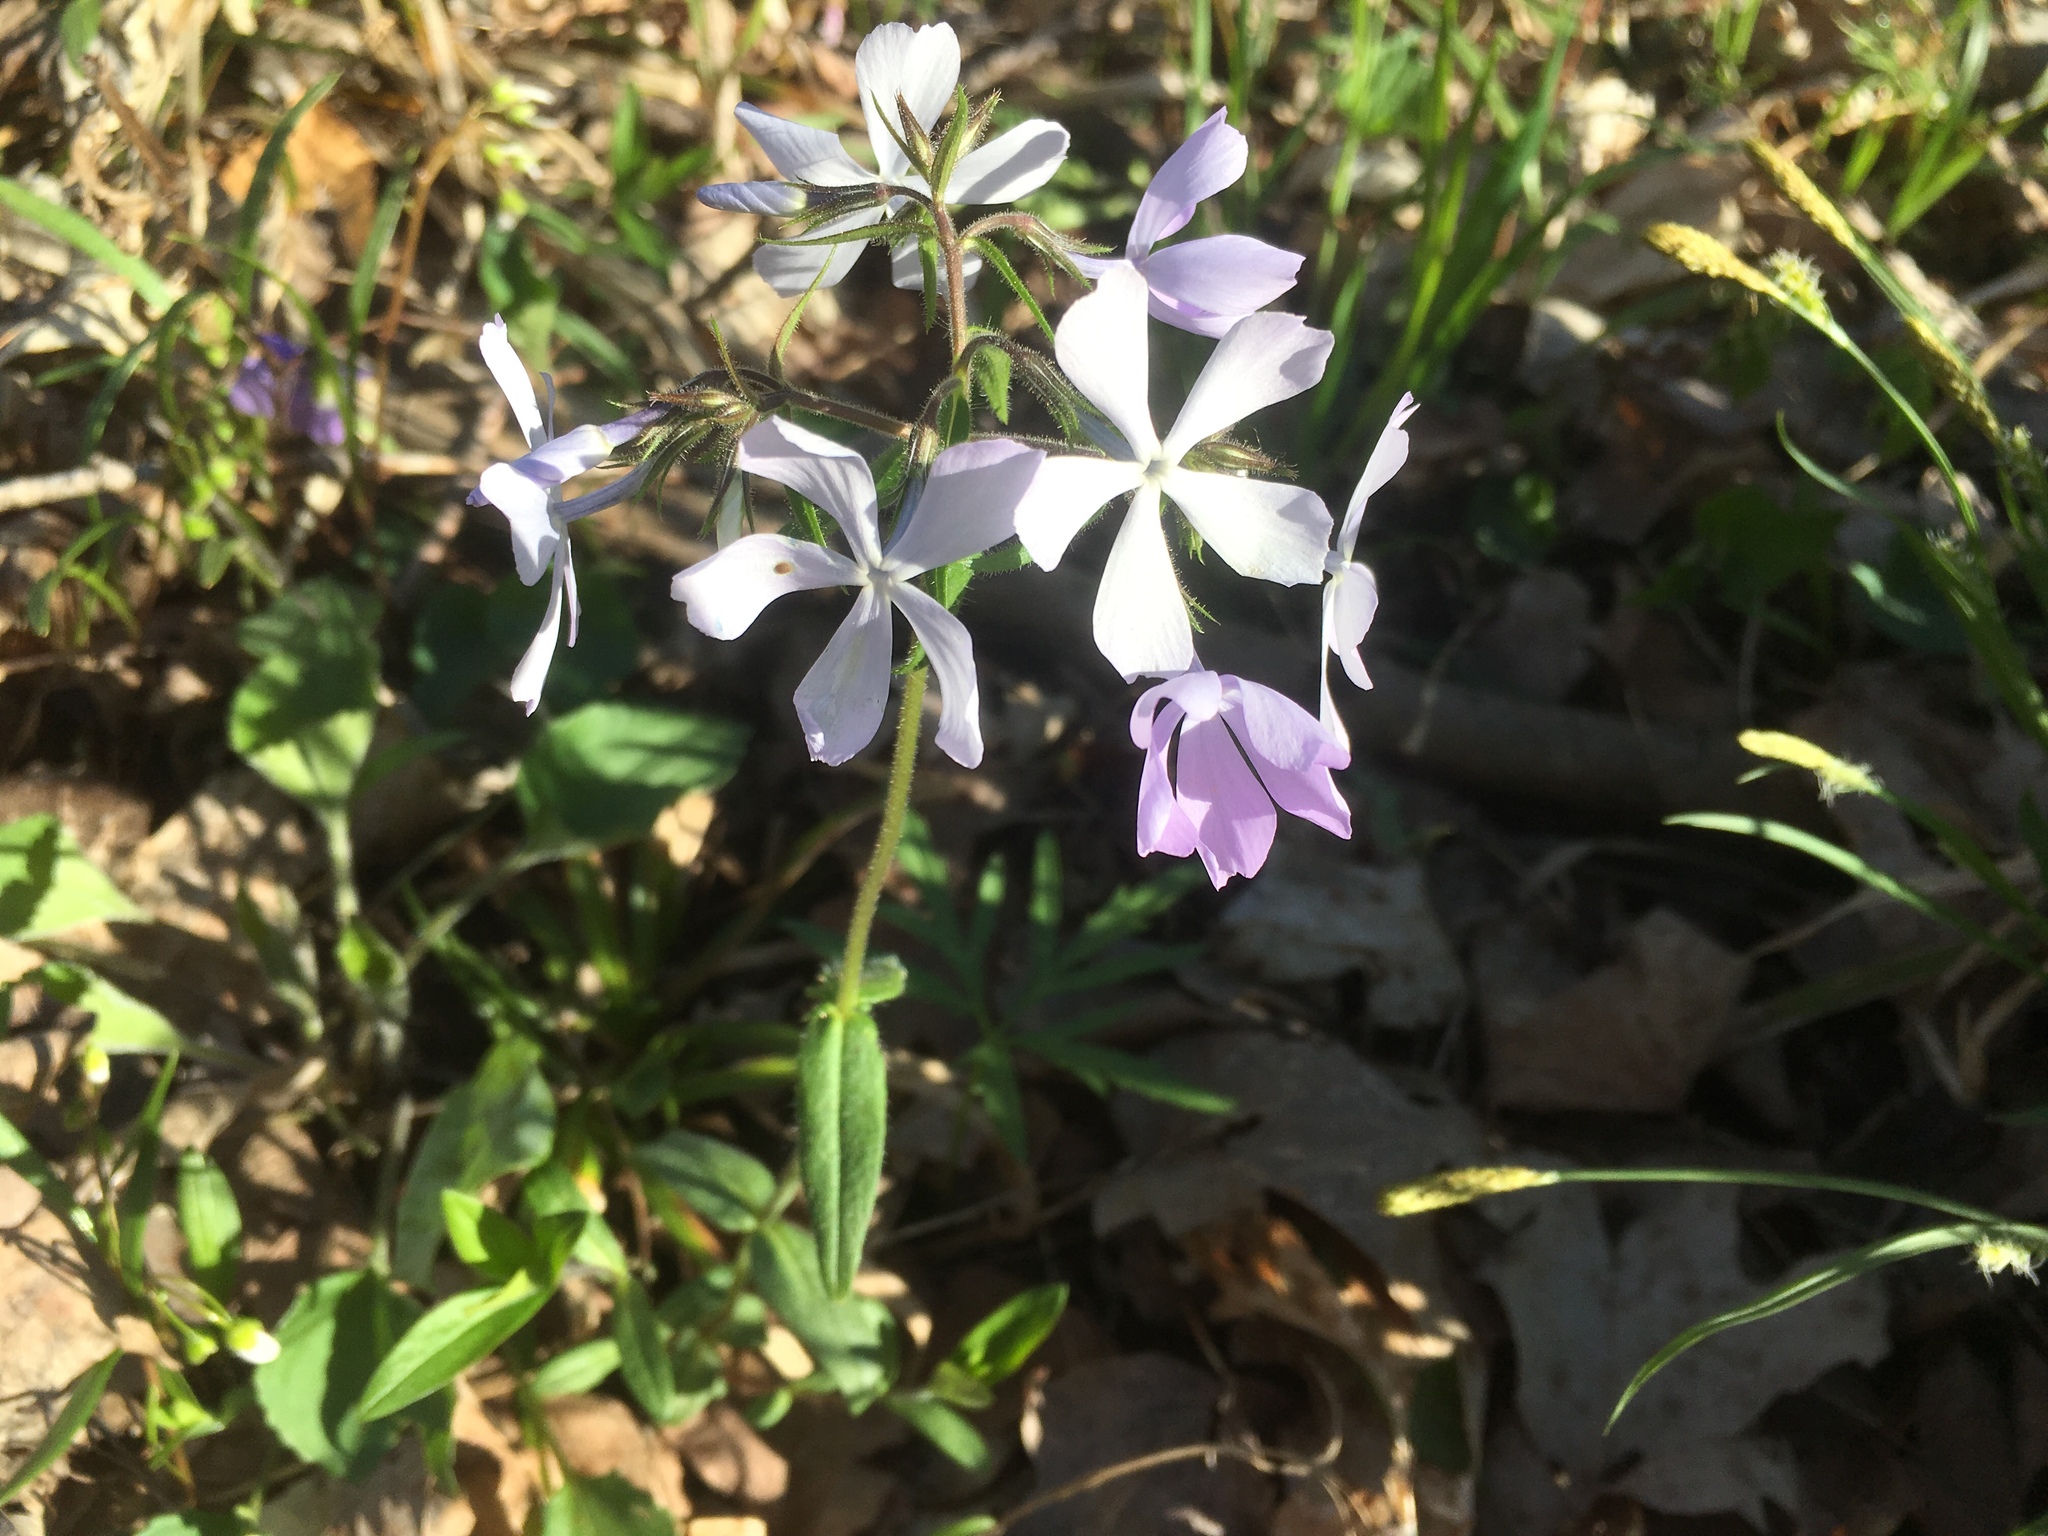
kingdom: Plantae
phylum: Tracheophyta
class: Magnoliopsida
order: Ericales
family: Polemoniaceae
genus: Phlox
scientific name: Phlox divaricata
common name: Blue phlox
